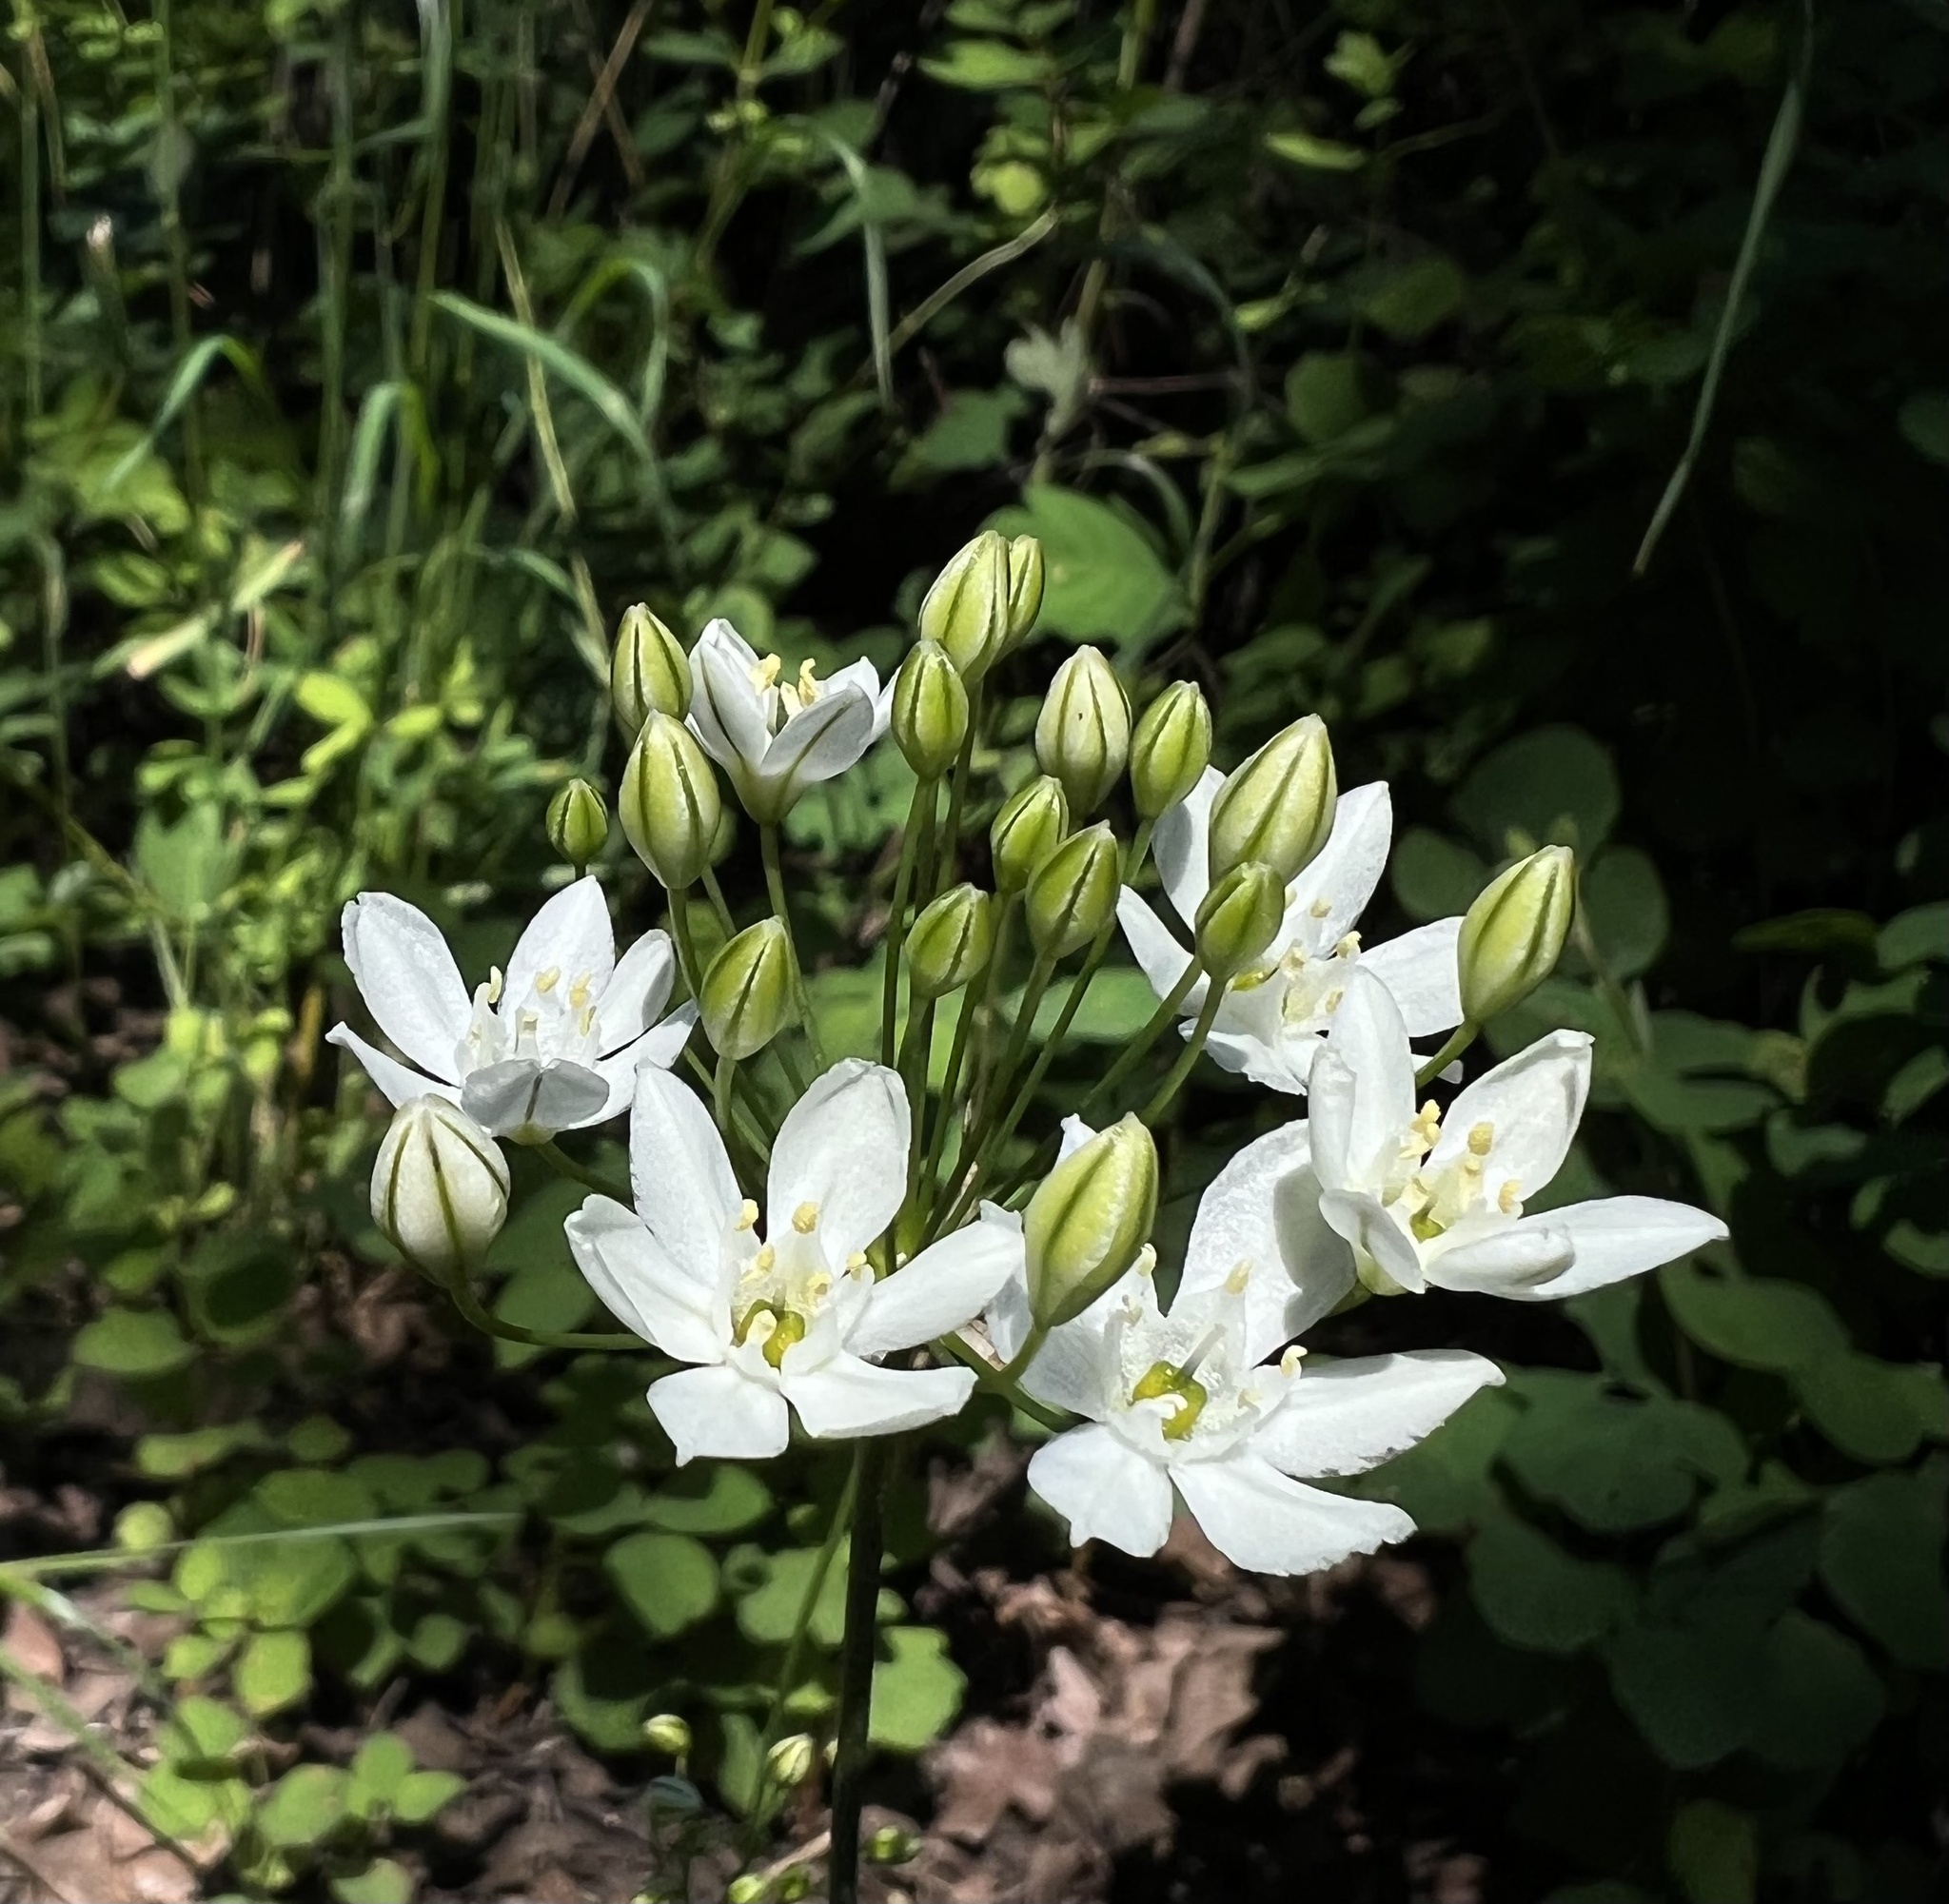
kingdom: Plantae
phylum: Tracheophyta
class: Liliopsida
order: Asparagales
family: Asparagaceae
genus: Triteleia
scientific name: Triteleia hyacinthina
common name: White brodiaea
